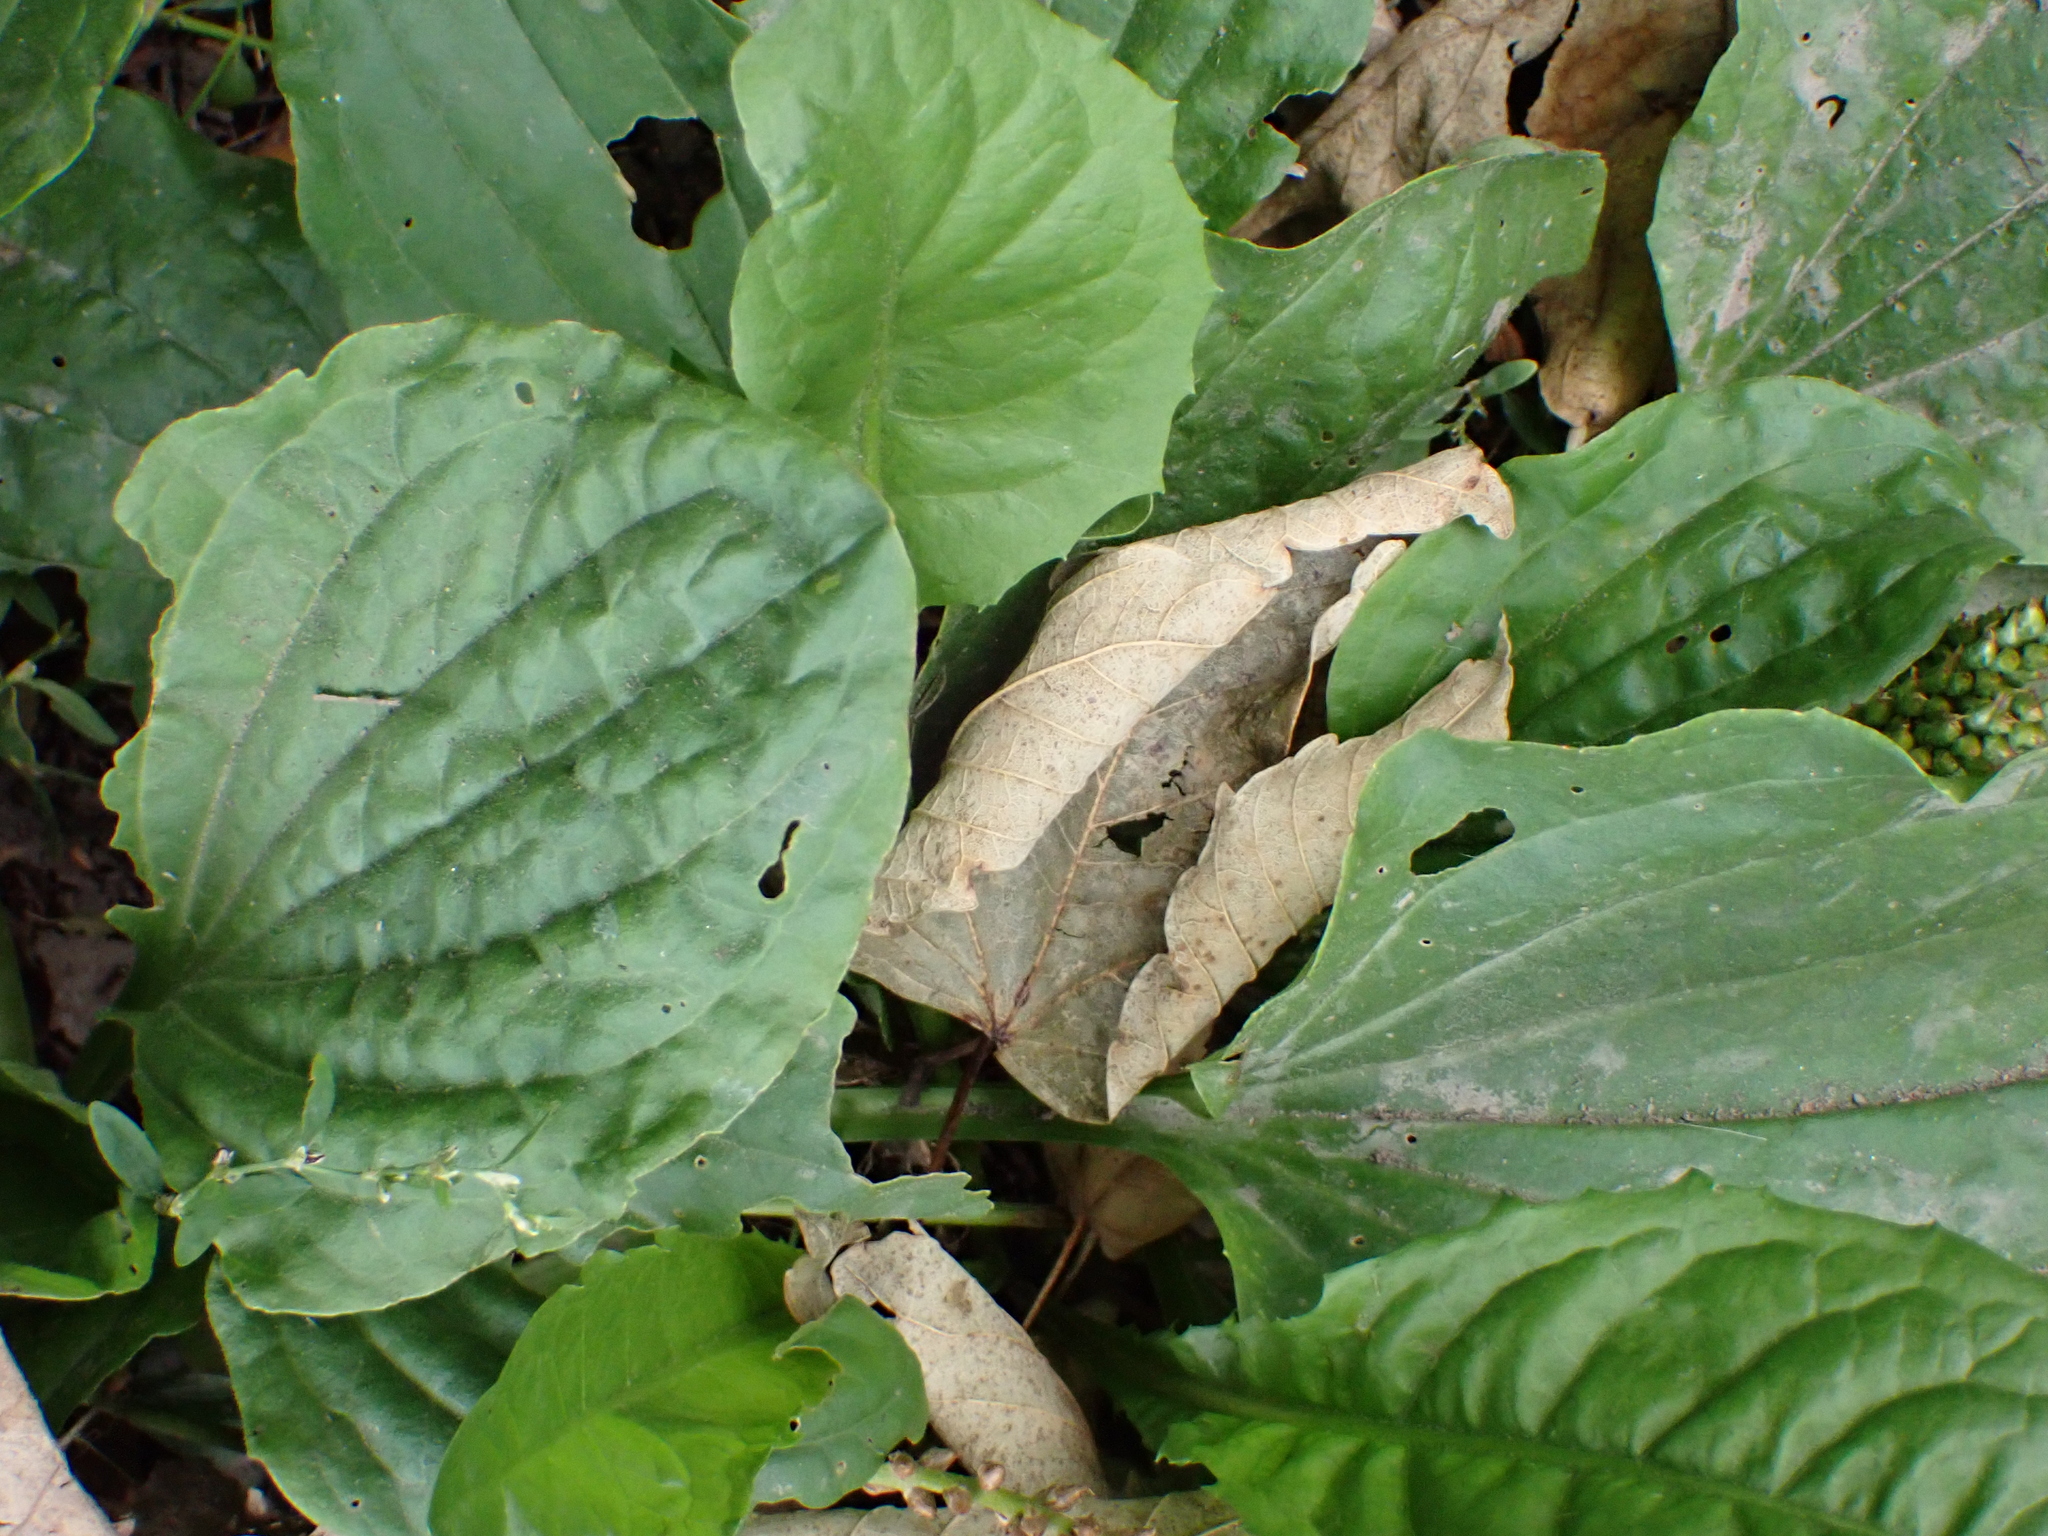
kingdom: Plantae
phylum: Tracheophyta
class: Magnoliopsida
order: Lamiales
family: Plantaginaceae
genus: Plantago
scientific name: Plantago major
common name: Common plantain
